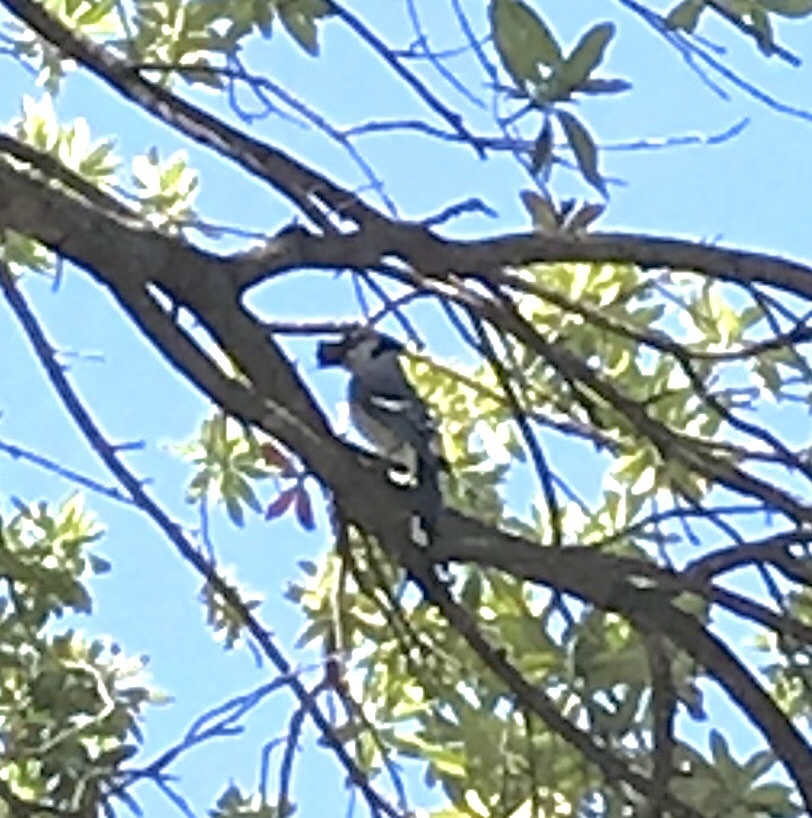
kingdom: Animalia
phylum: Chordata
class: Aves
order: Passeriformes
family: Corvidae
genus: Cyanocitta
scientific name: Cyanocitta cristata
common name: Blue jay
